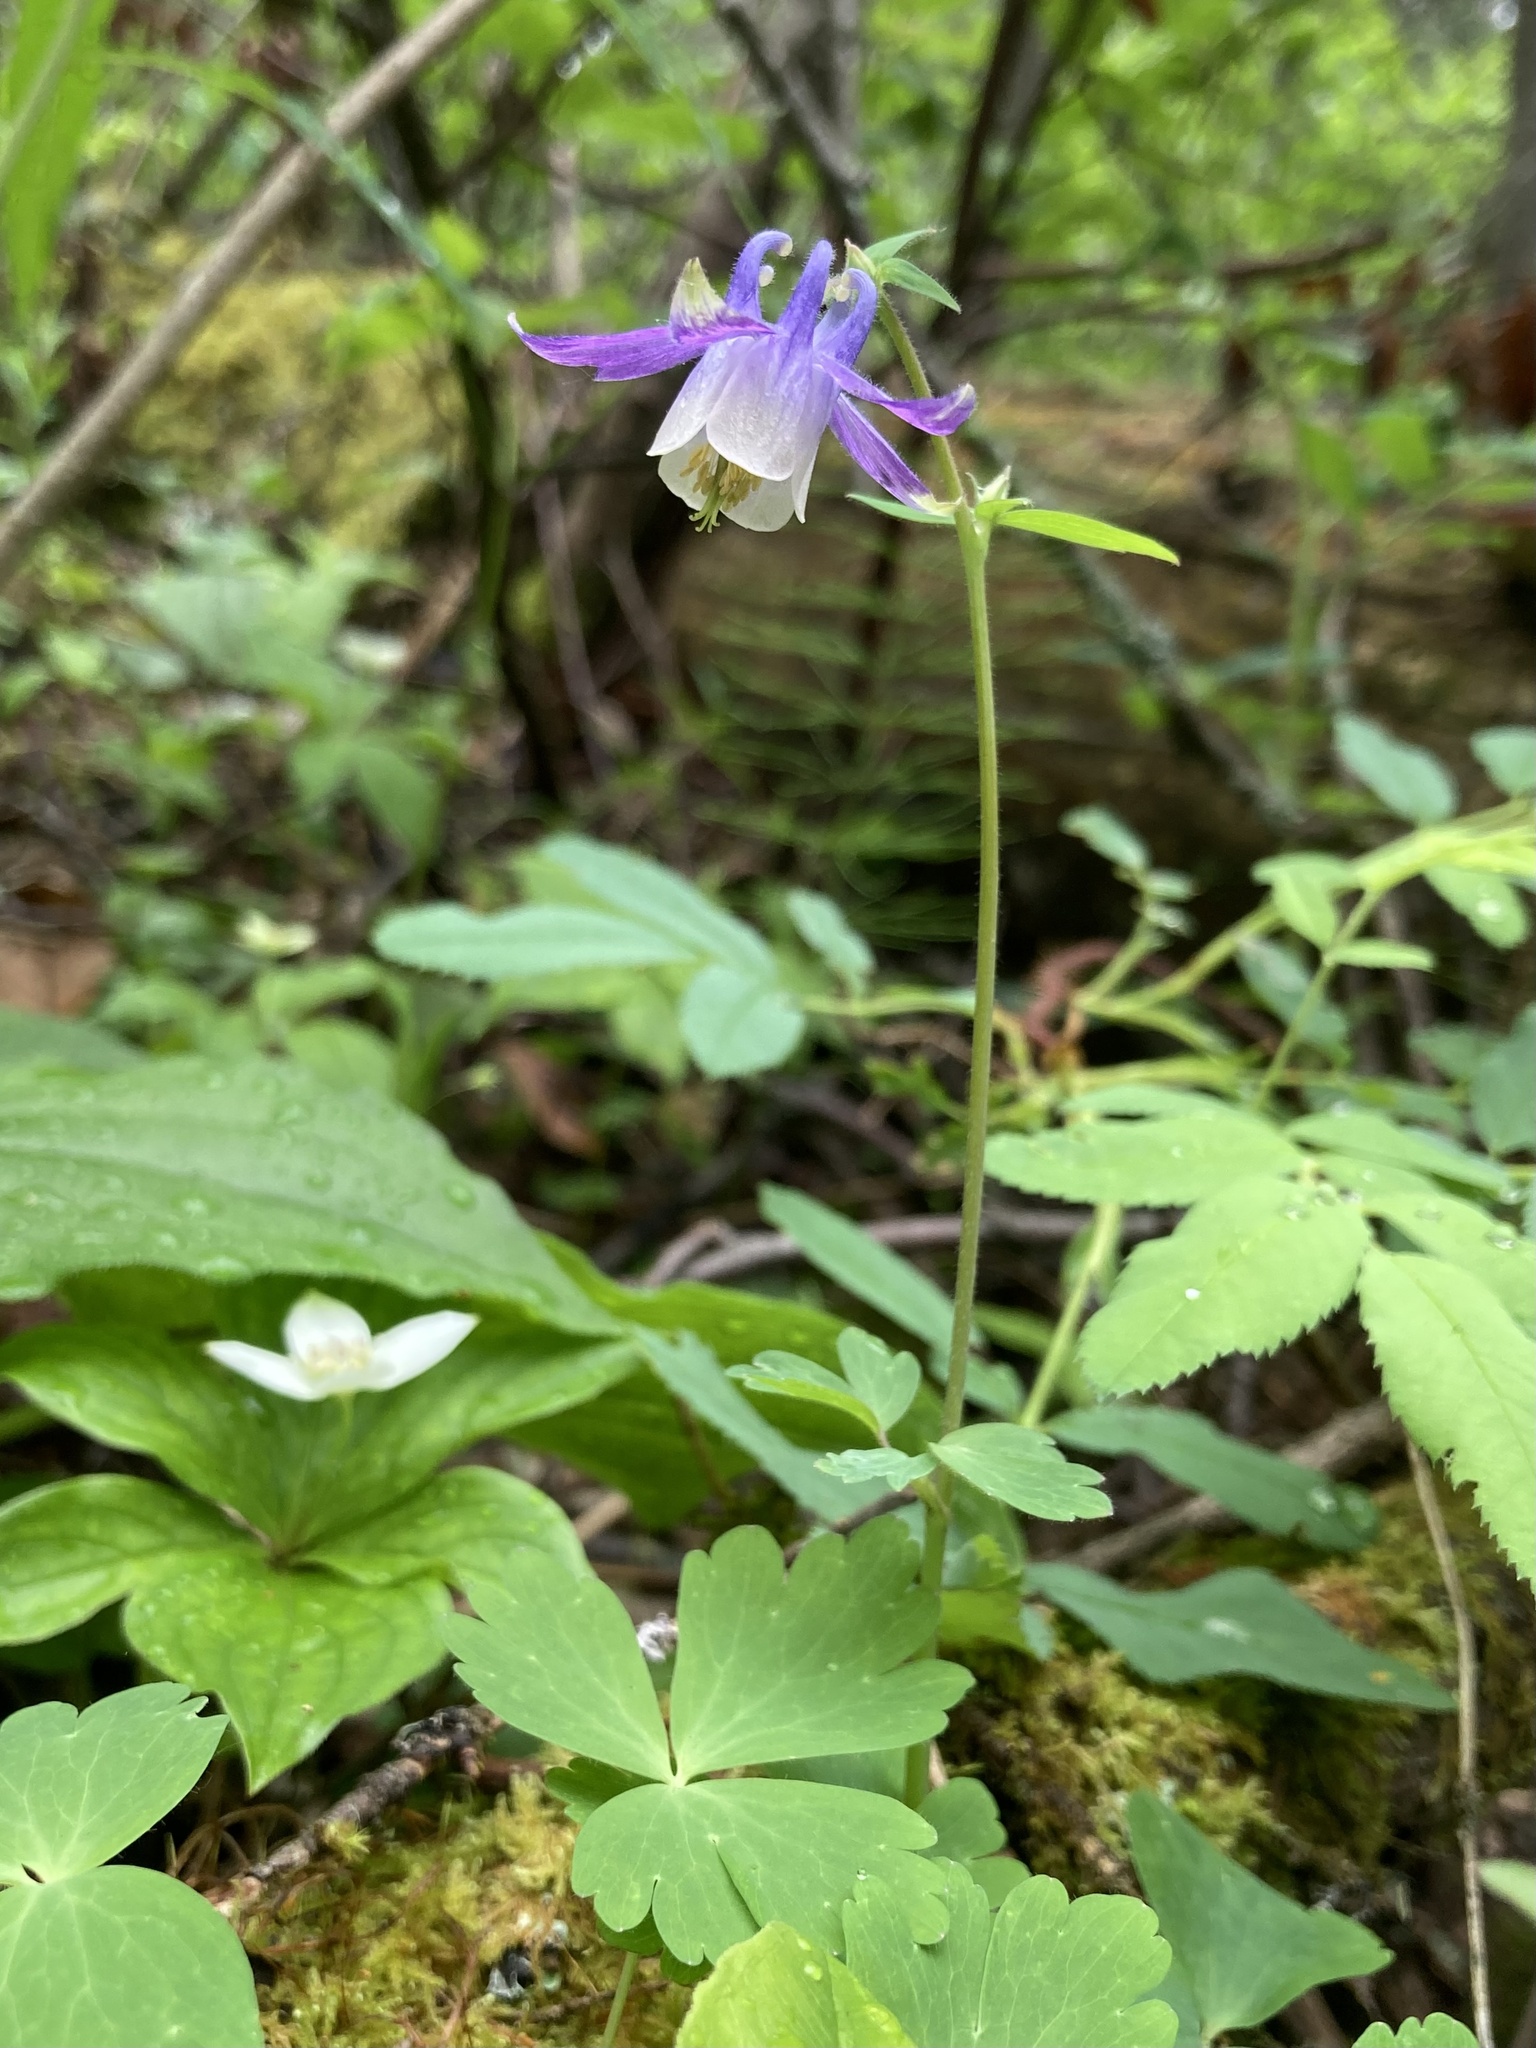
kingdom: Plantae
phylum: Tracheophyta
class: Magnoliopsida
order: Ranunculales
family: Ranunculaceae
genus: Aquilegia
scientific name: Aquilegia brevistyla
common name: Yukon columbine
